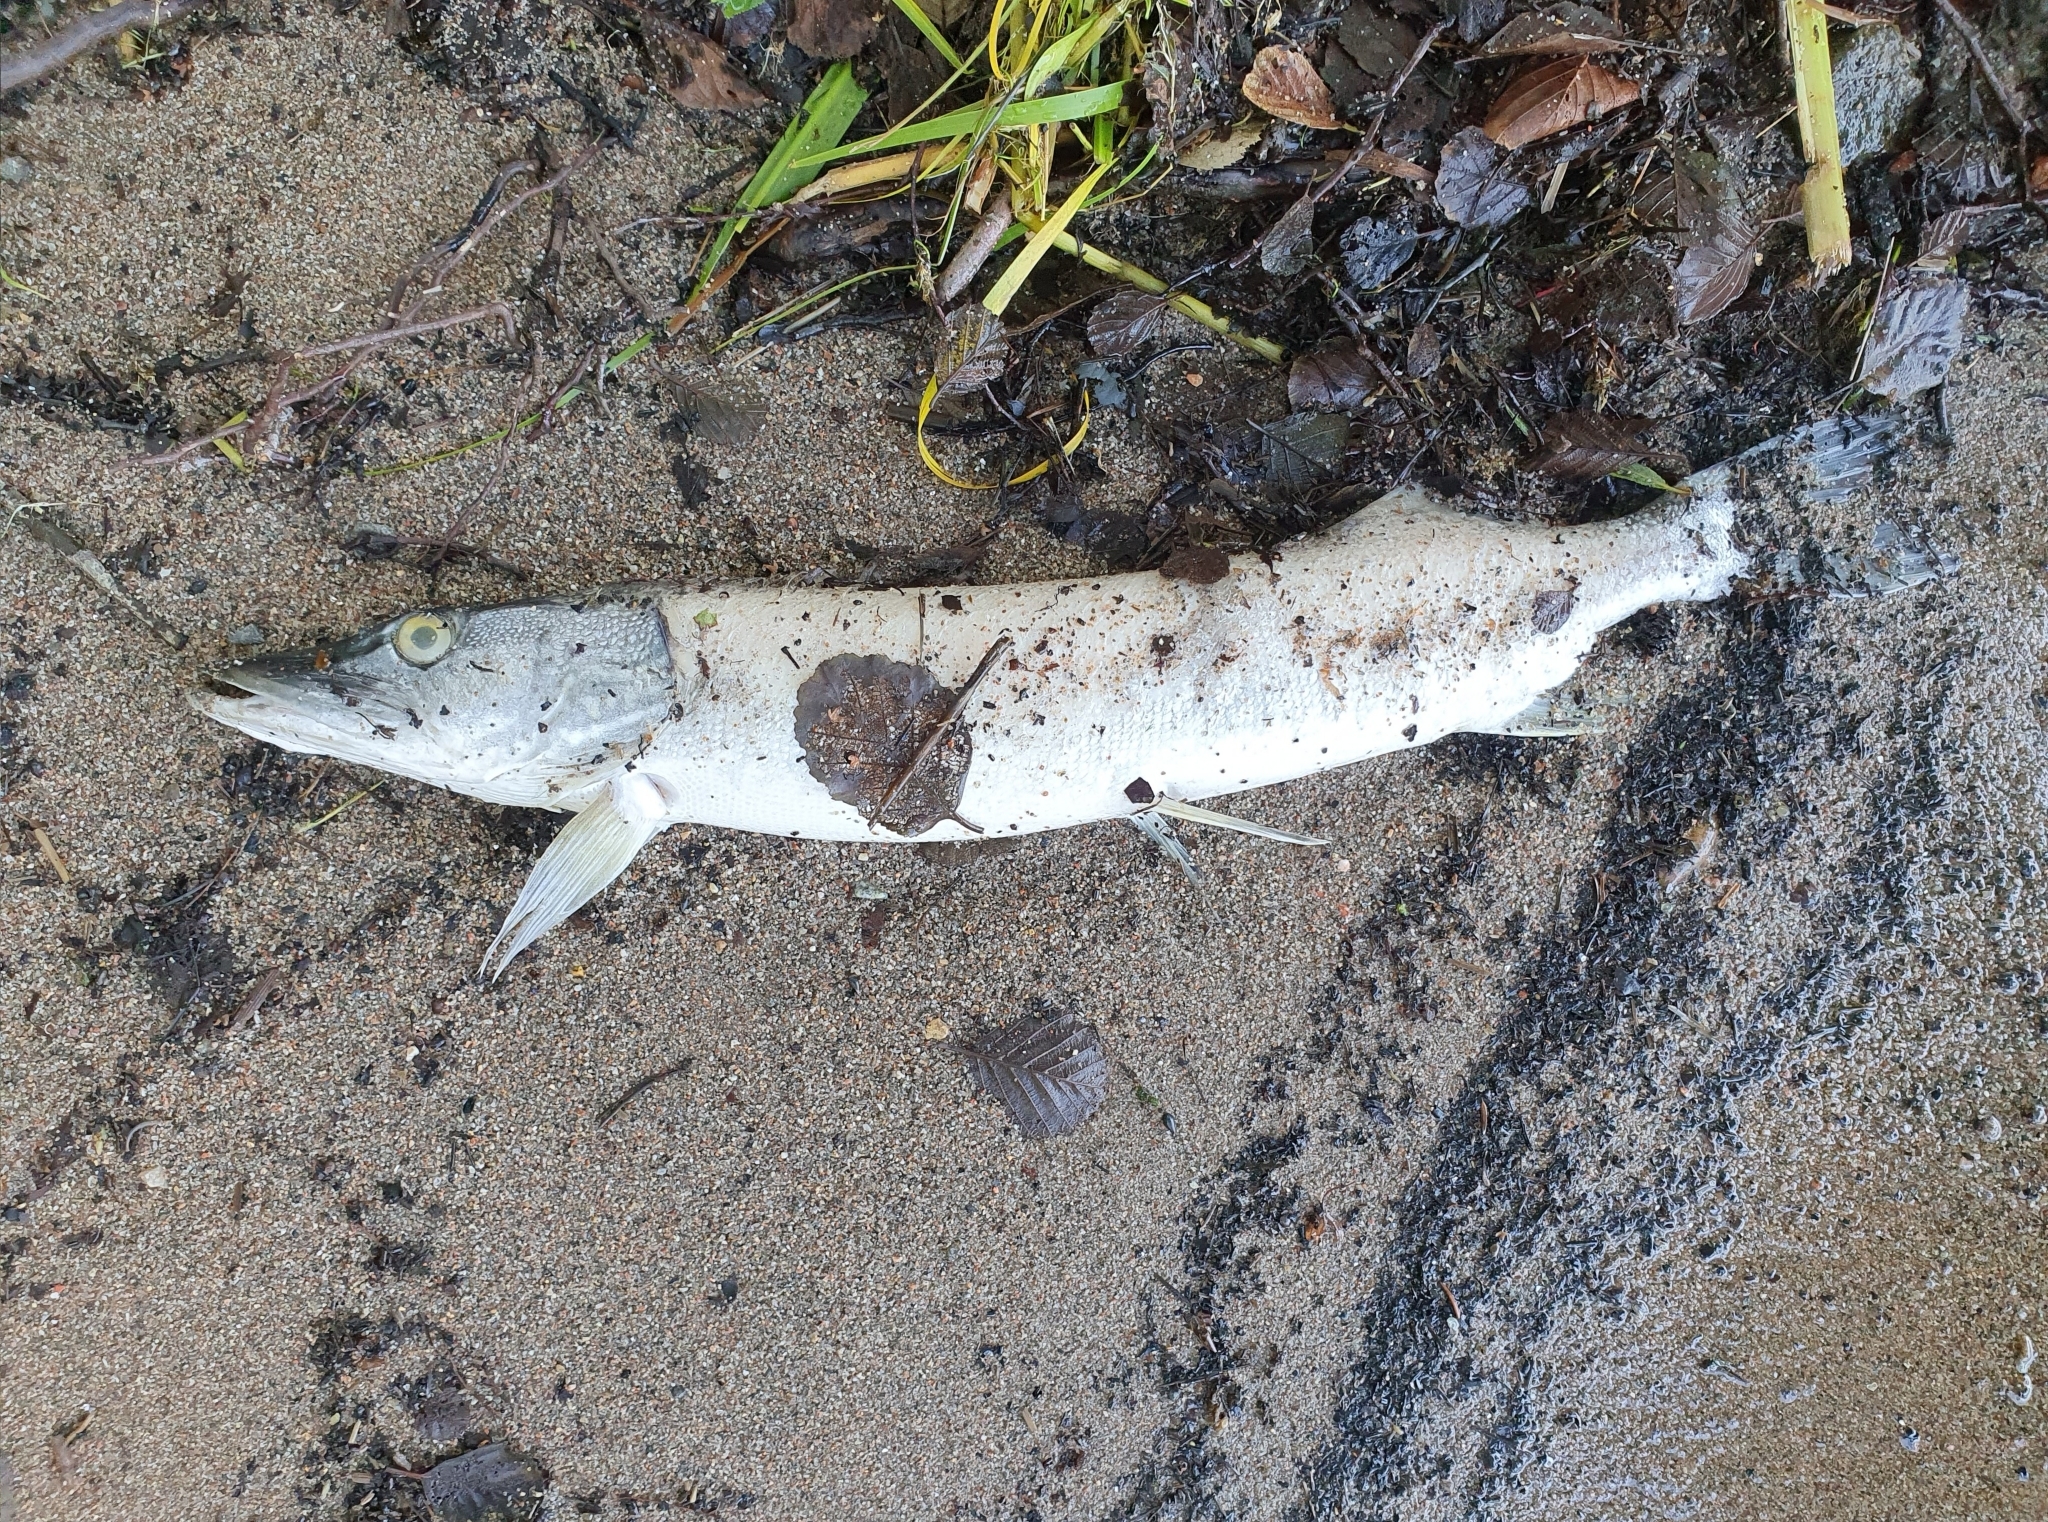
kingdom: Animalia
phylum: Chordata
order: Esociformes
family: Esocidae
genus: Esox
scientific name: Esox lucius
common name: Northern pike
